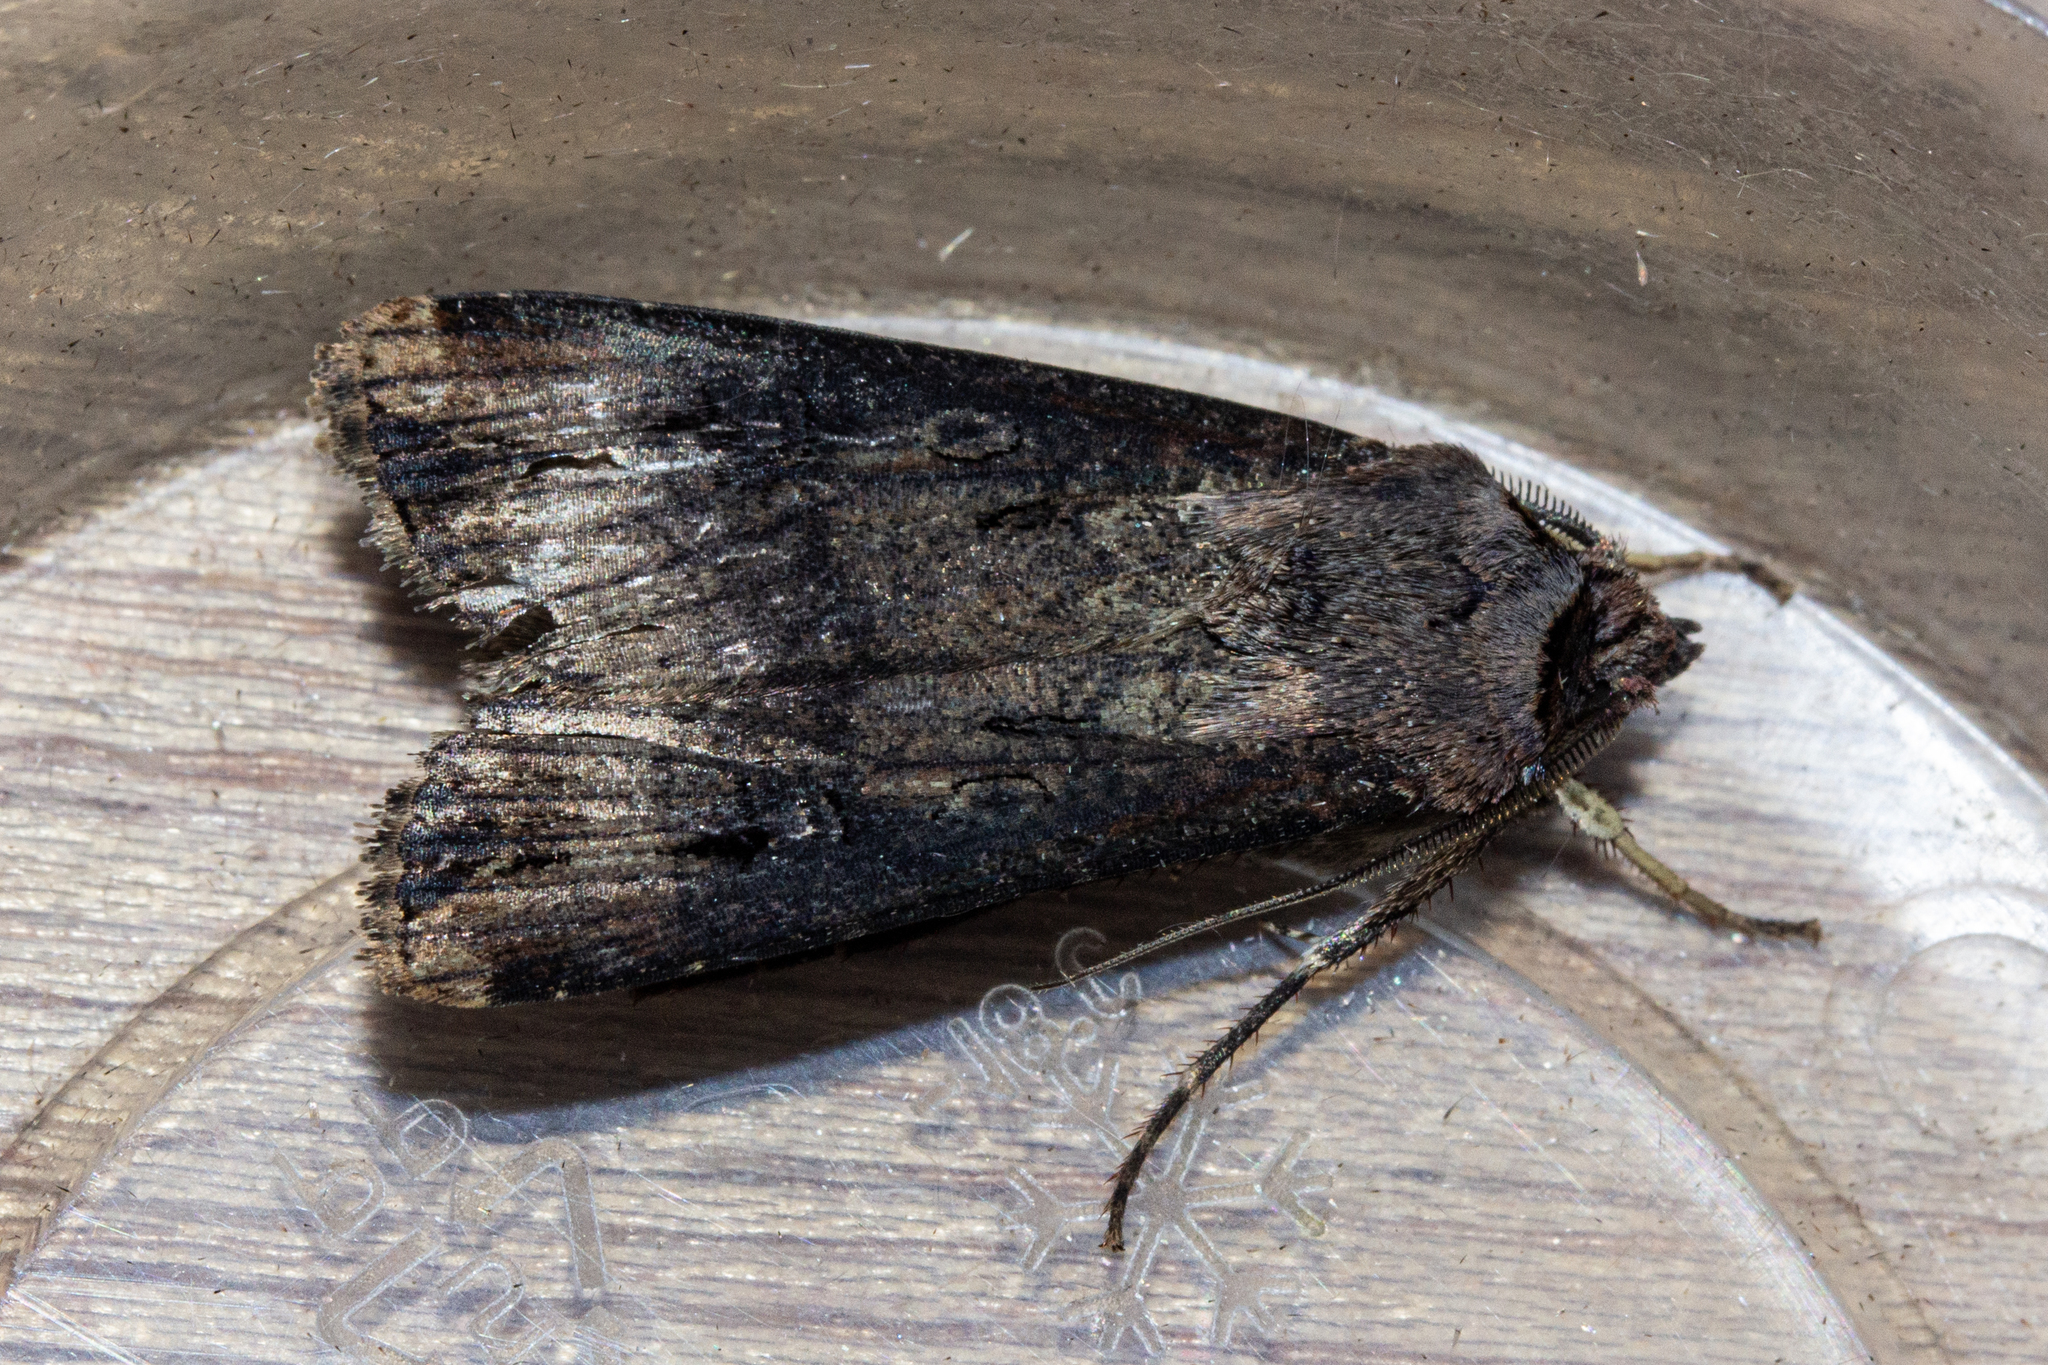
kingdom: Animalia
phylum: Arthropoda
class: Insecta
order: Lepidoptera
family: Noctuidae
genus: Agrotis
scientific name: Agrotis ipsilon
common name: Dark sword-grass
